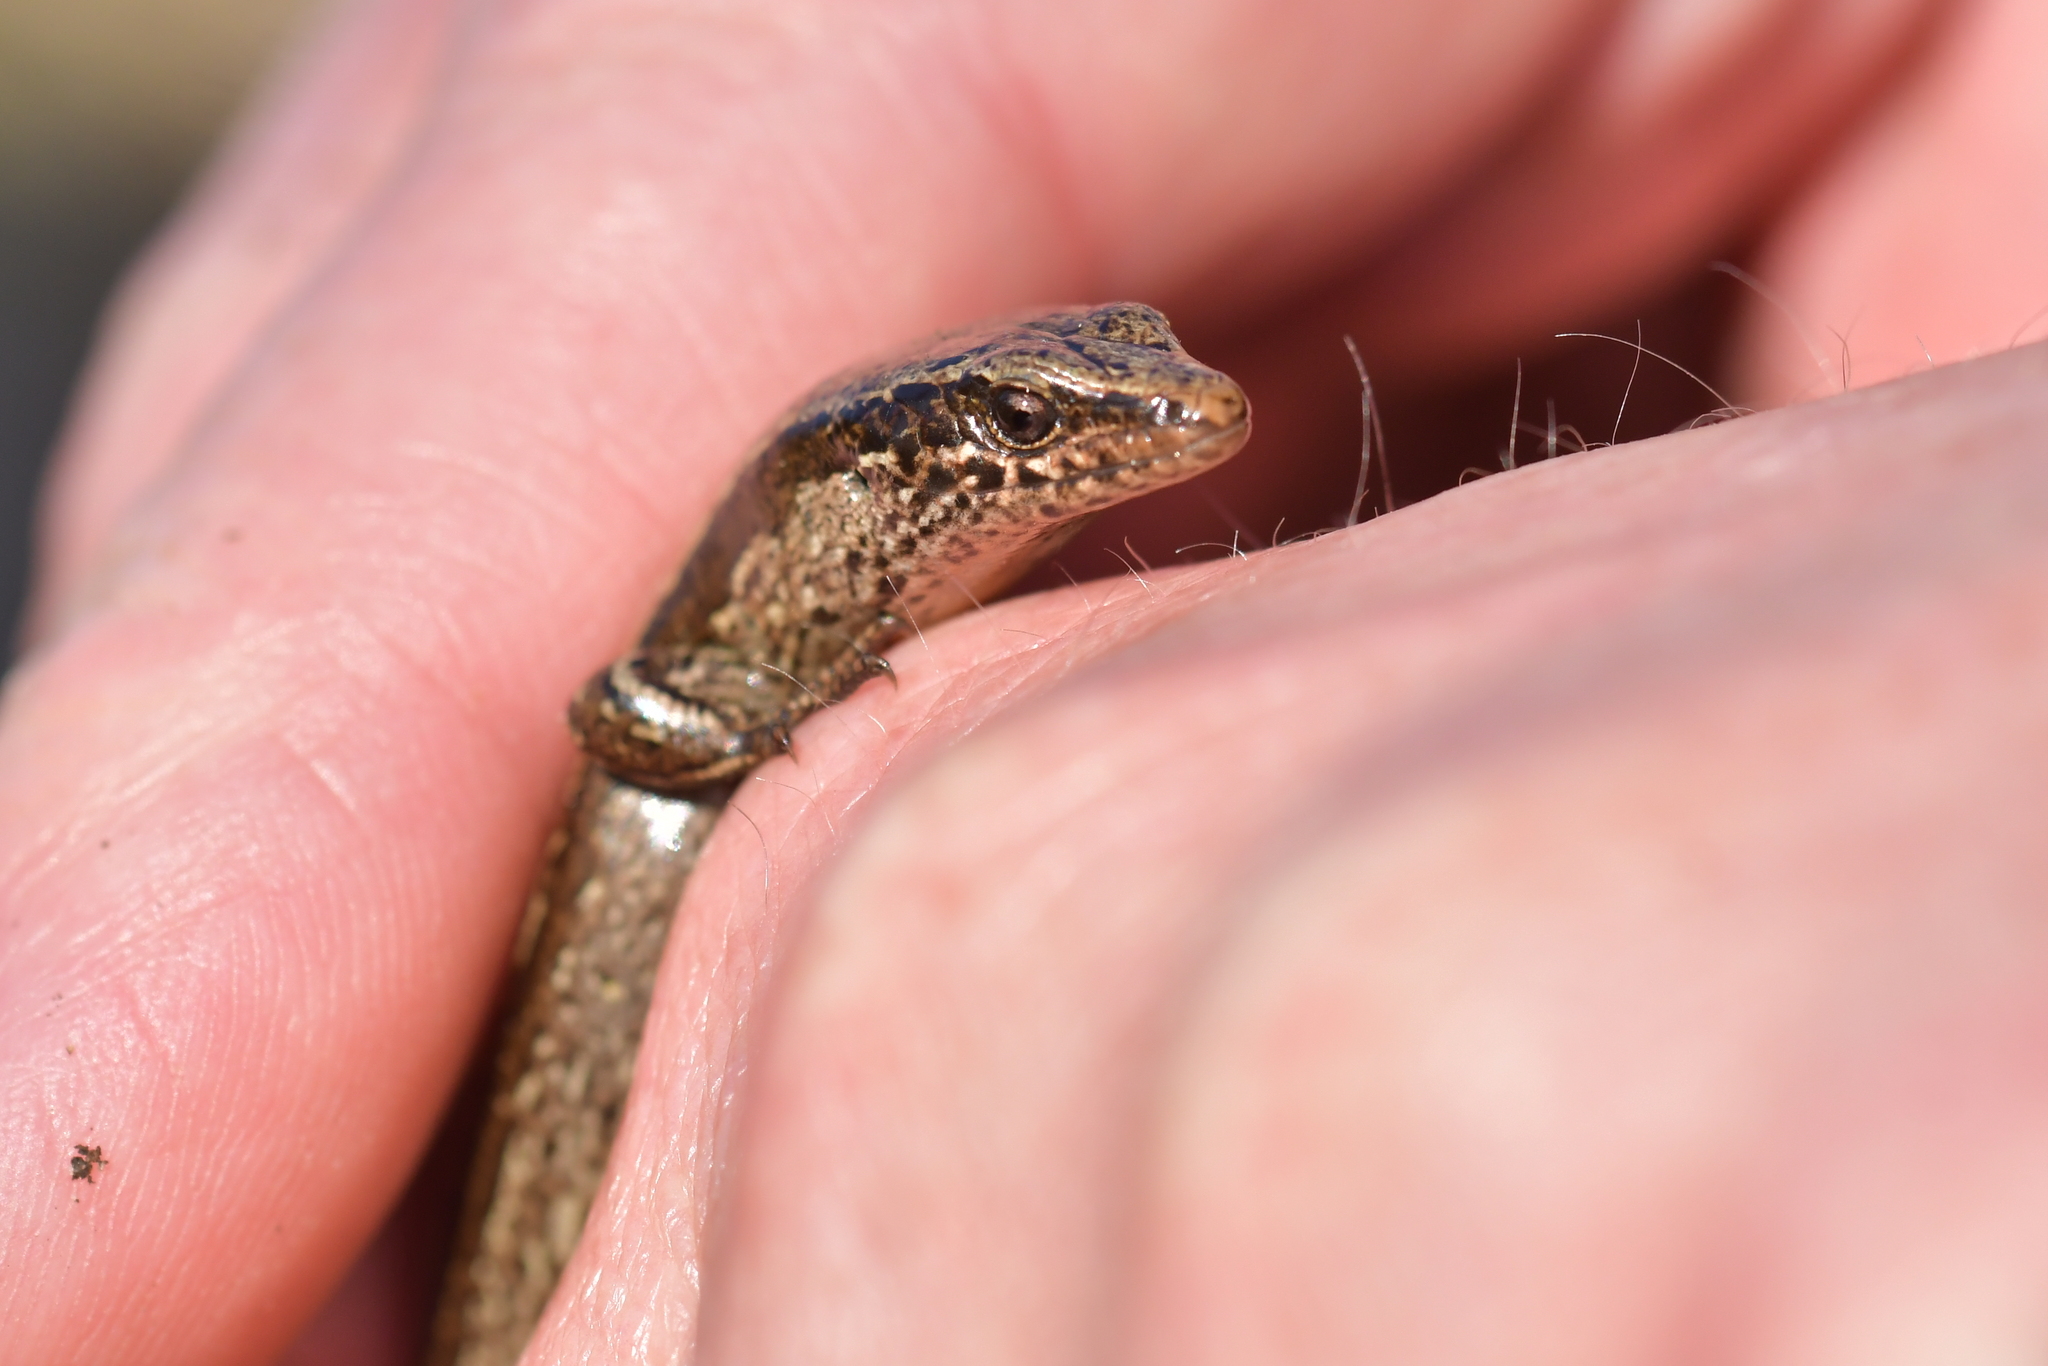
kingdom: Animalia
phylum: Chordata
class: Squamata
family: Scincidae
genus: Oligosoma
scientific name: Oligosoma zelandicum
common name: Brown skink
